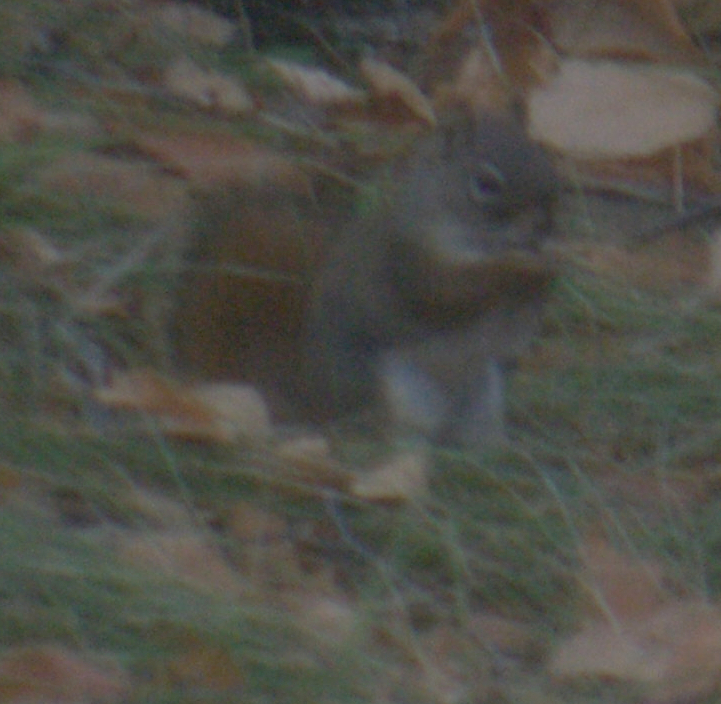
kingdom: Animalia
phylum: Chordata
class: Mammalia
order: Rodentia
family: Sciuridae
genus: Tamiasciurus
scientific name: Tamiasciurus hudsonicus
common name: Red squirrel
